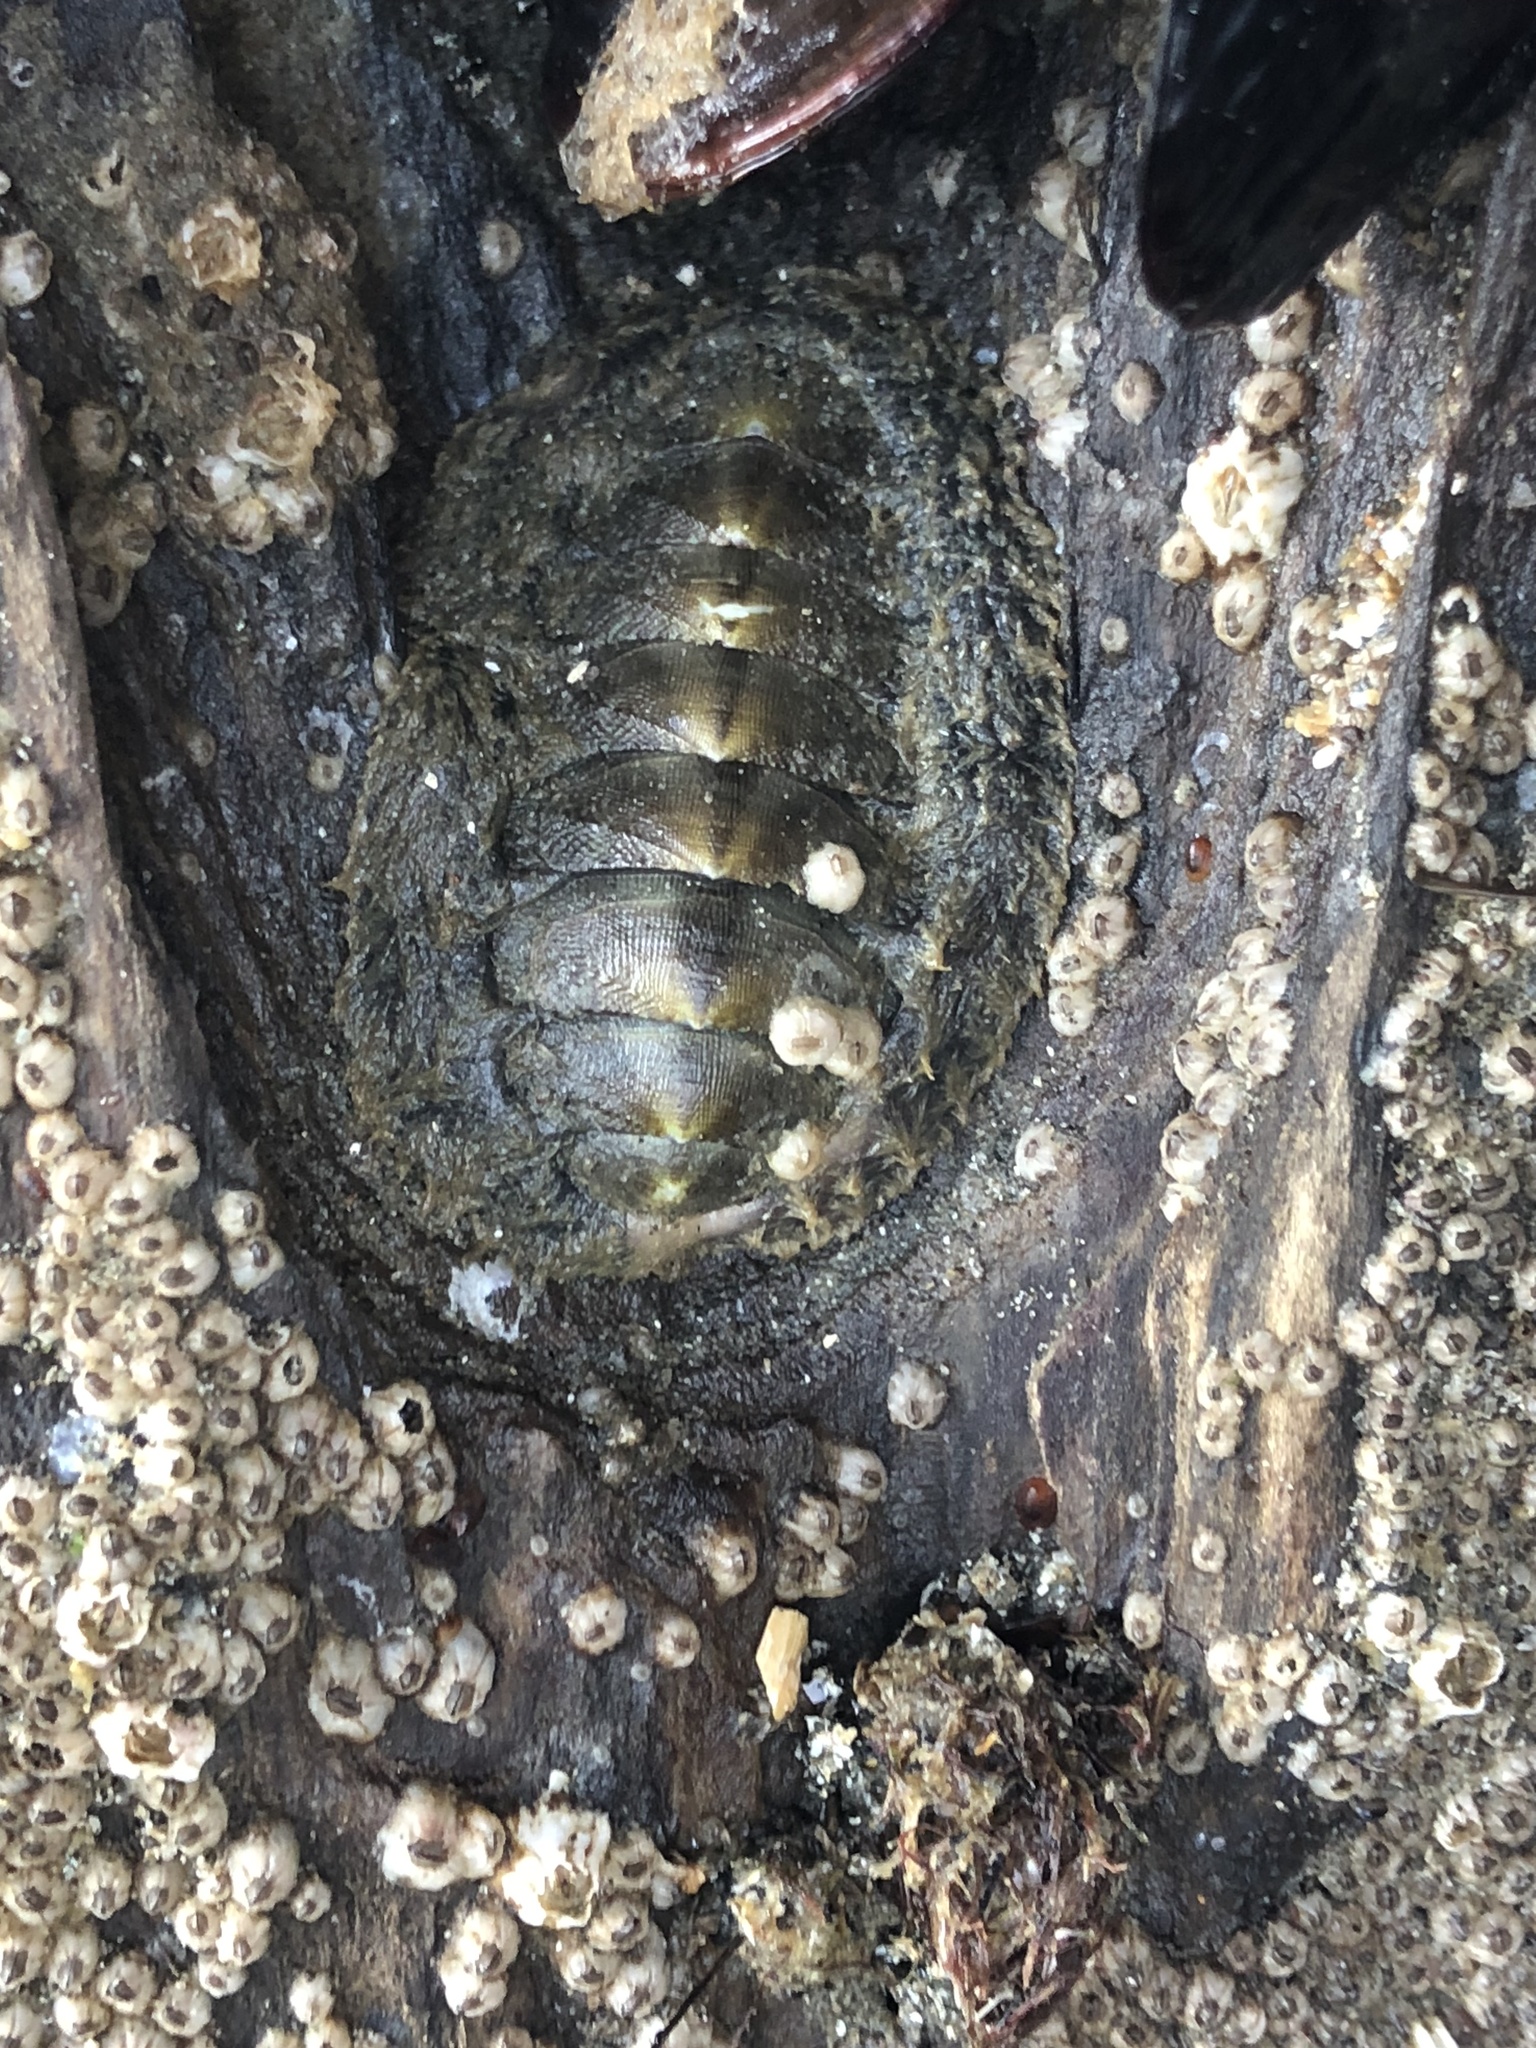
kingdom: Animalia
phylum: Mollusca
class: Polyplacophora
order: Chitonida
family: Mopaliidae
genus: Mopalia
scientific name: Mopalia hindsii
